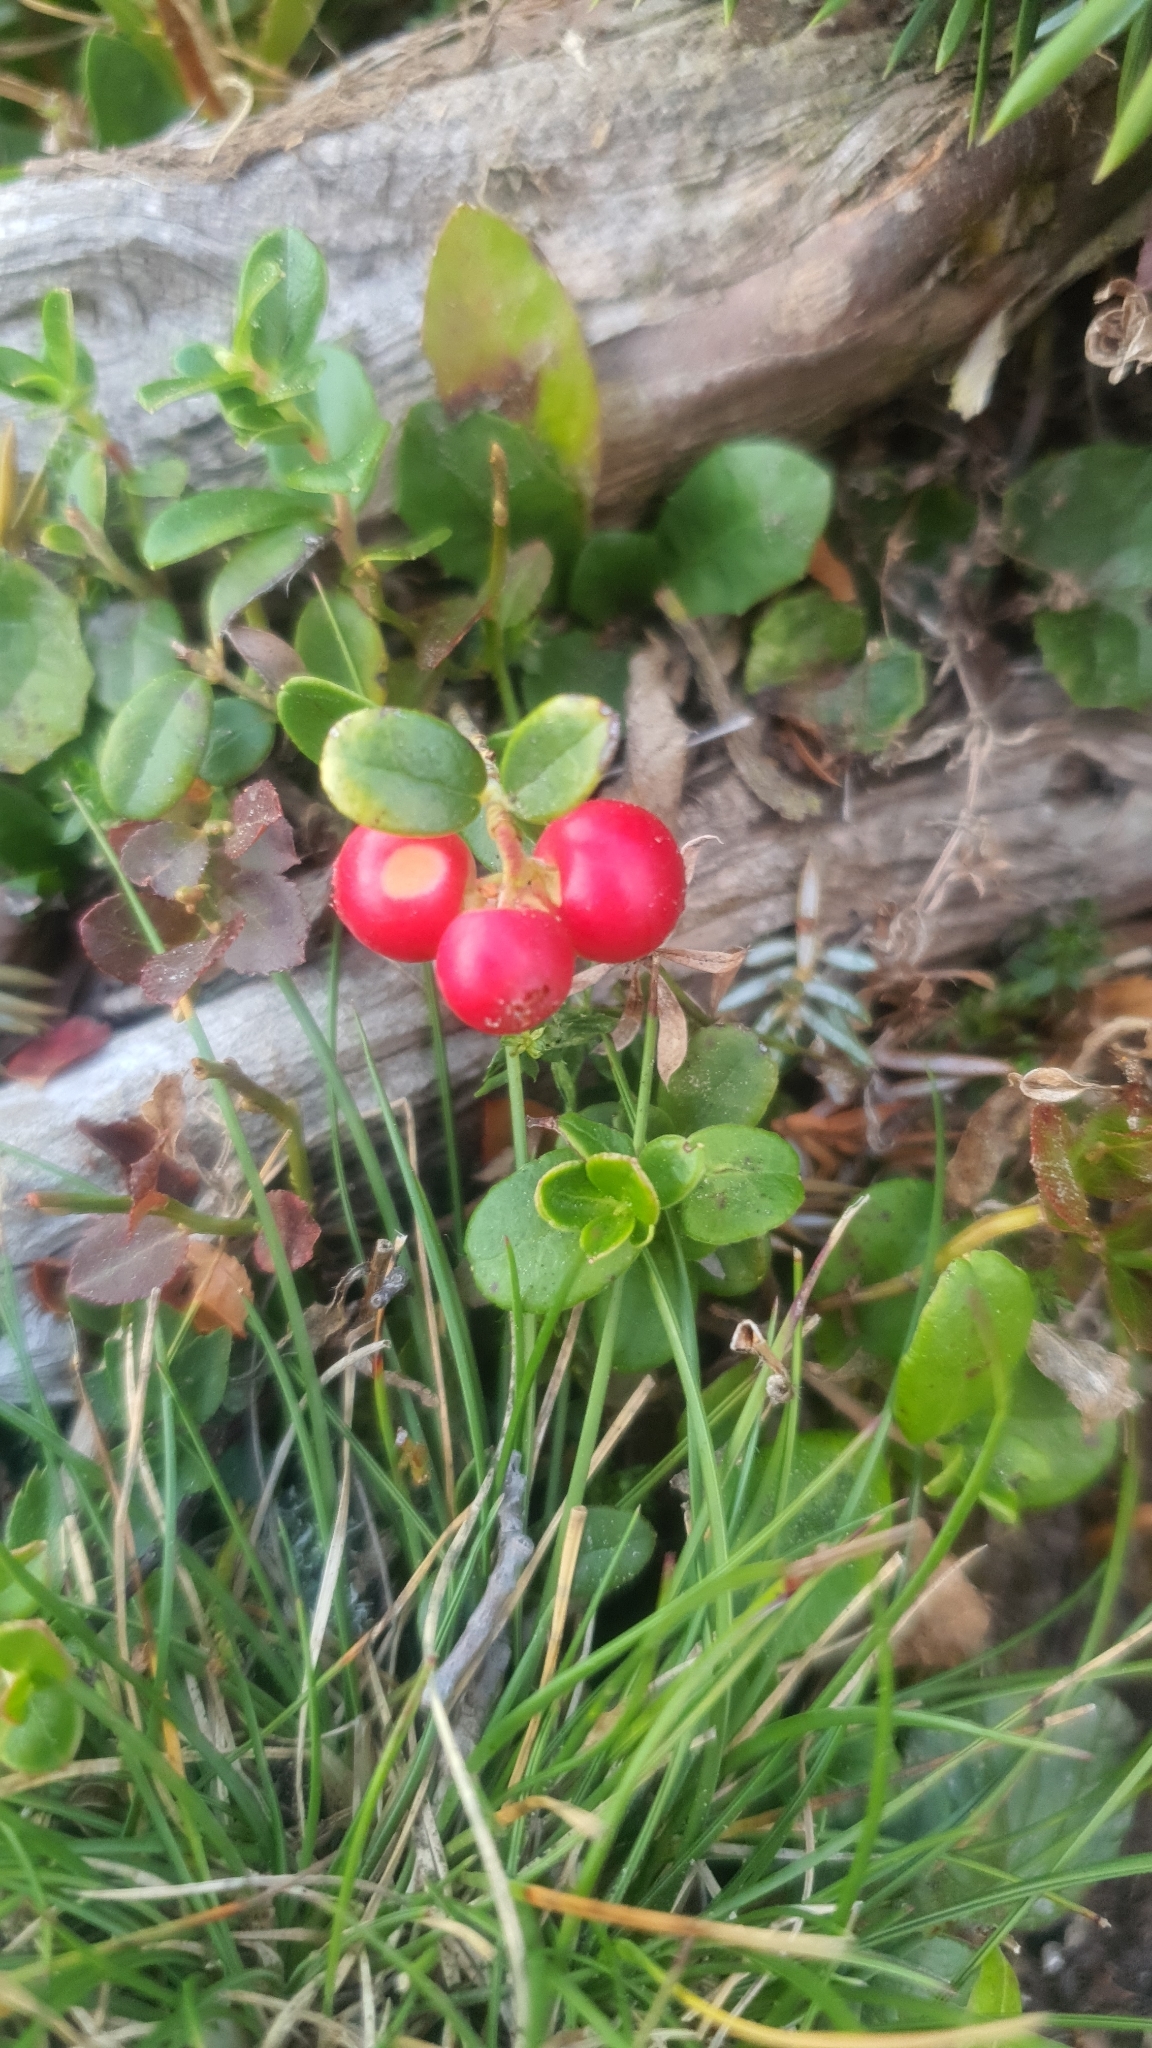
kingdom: Plantae
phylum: Tracheophyta
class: Magnoliopsida
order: Ericales
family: Ericaceae
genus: Vaccinium
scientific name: Vaccinium vitis-idaea
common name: Cowberry
